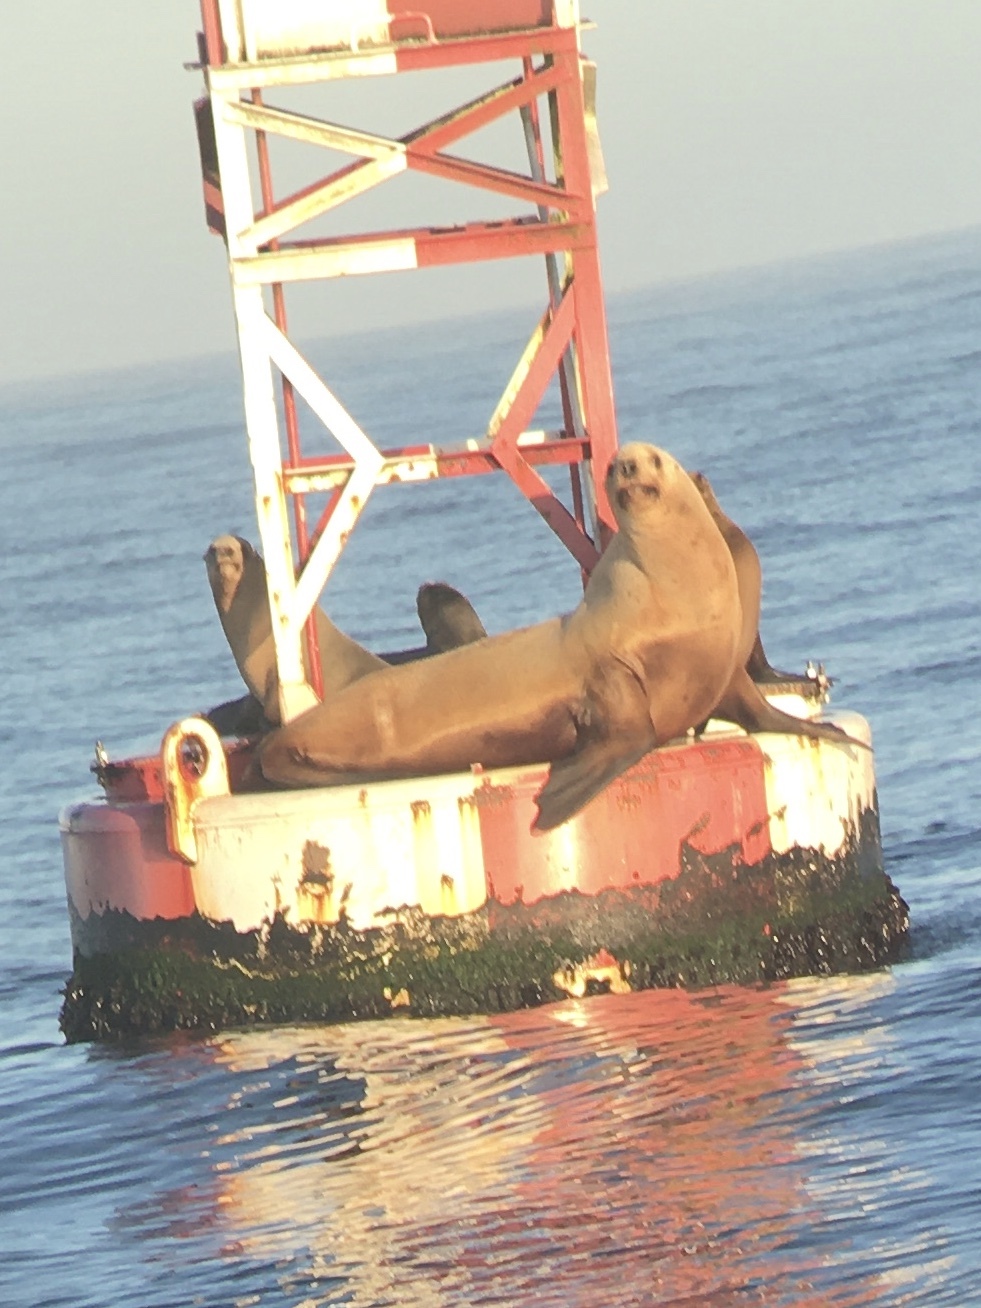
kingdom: Animalia
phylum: Chordata
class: Mammalia
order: Carnivora
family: Otariidae
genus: Eumetopias
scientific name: Eumetopias jubatus
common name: Steller sea lion
